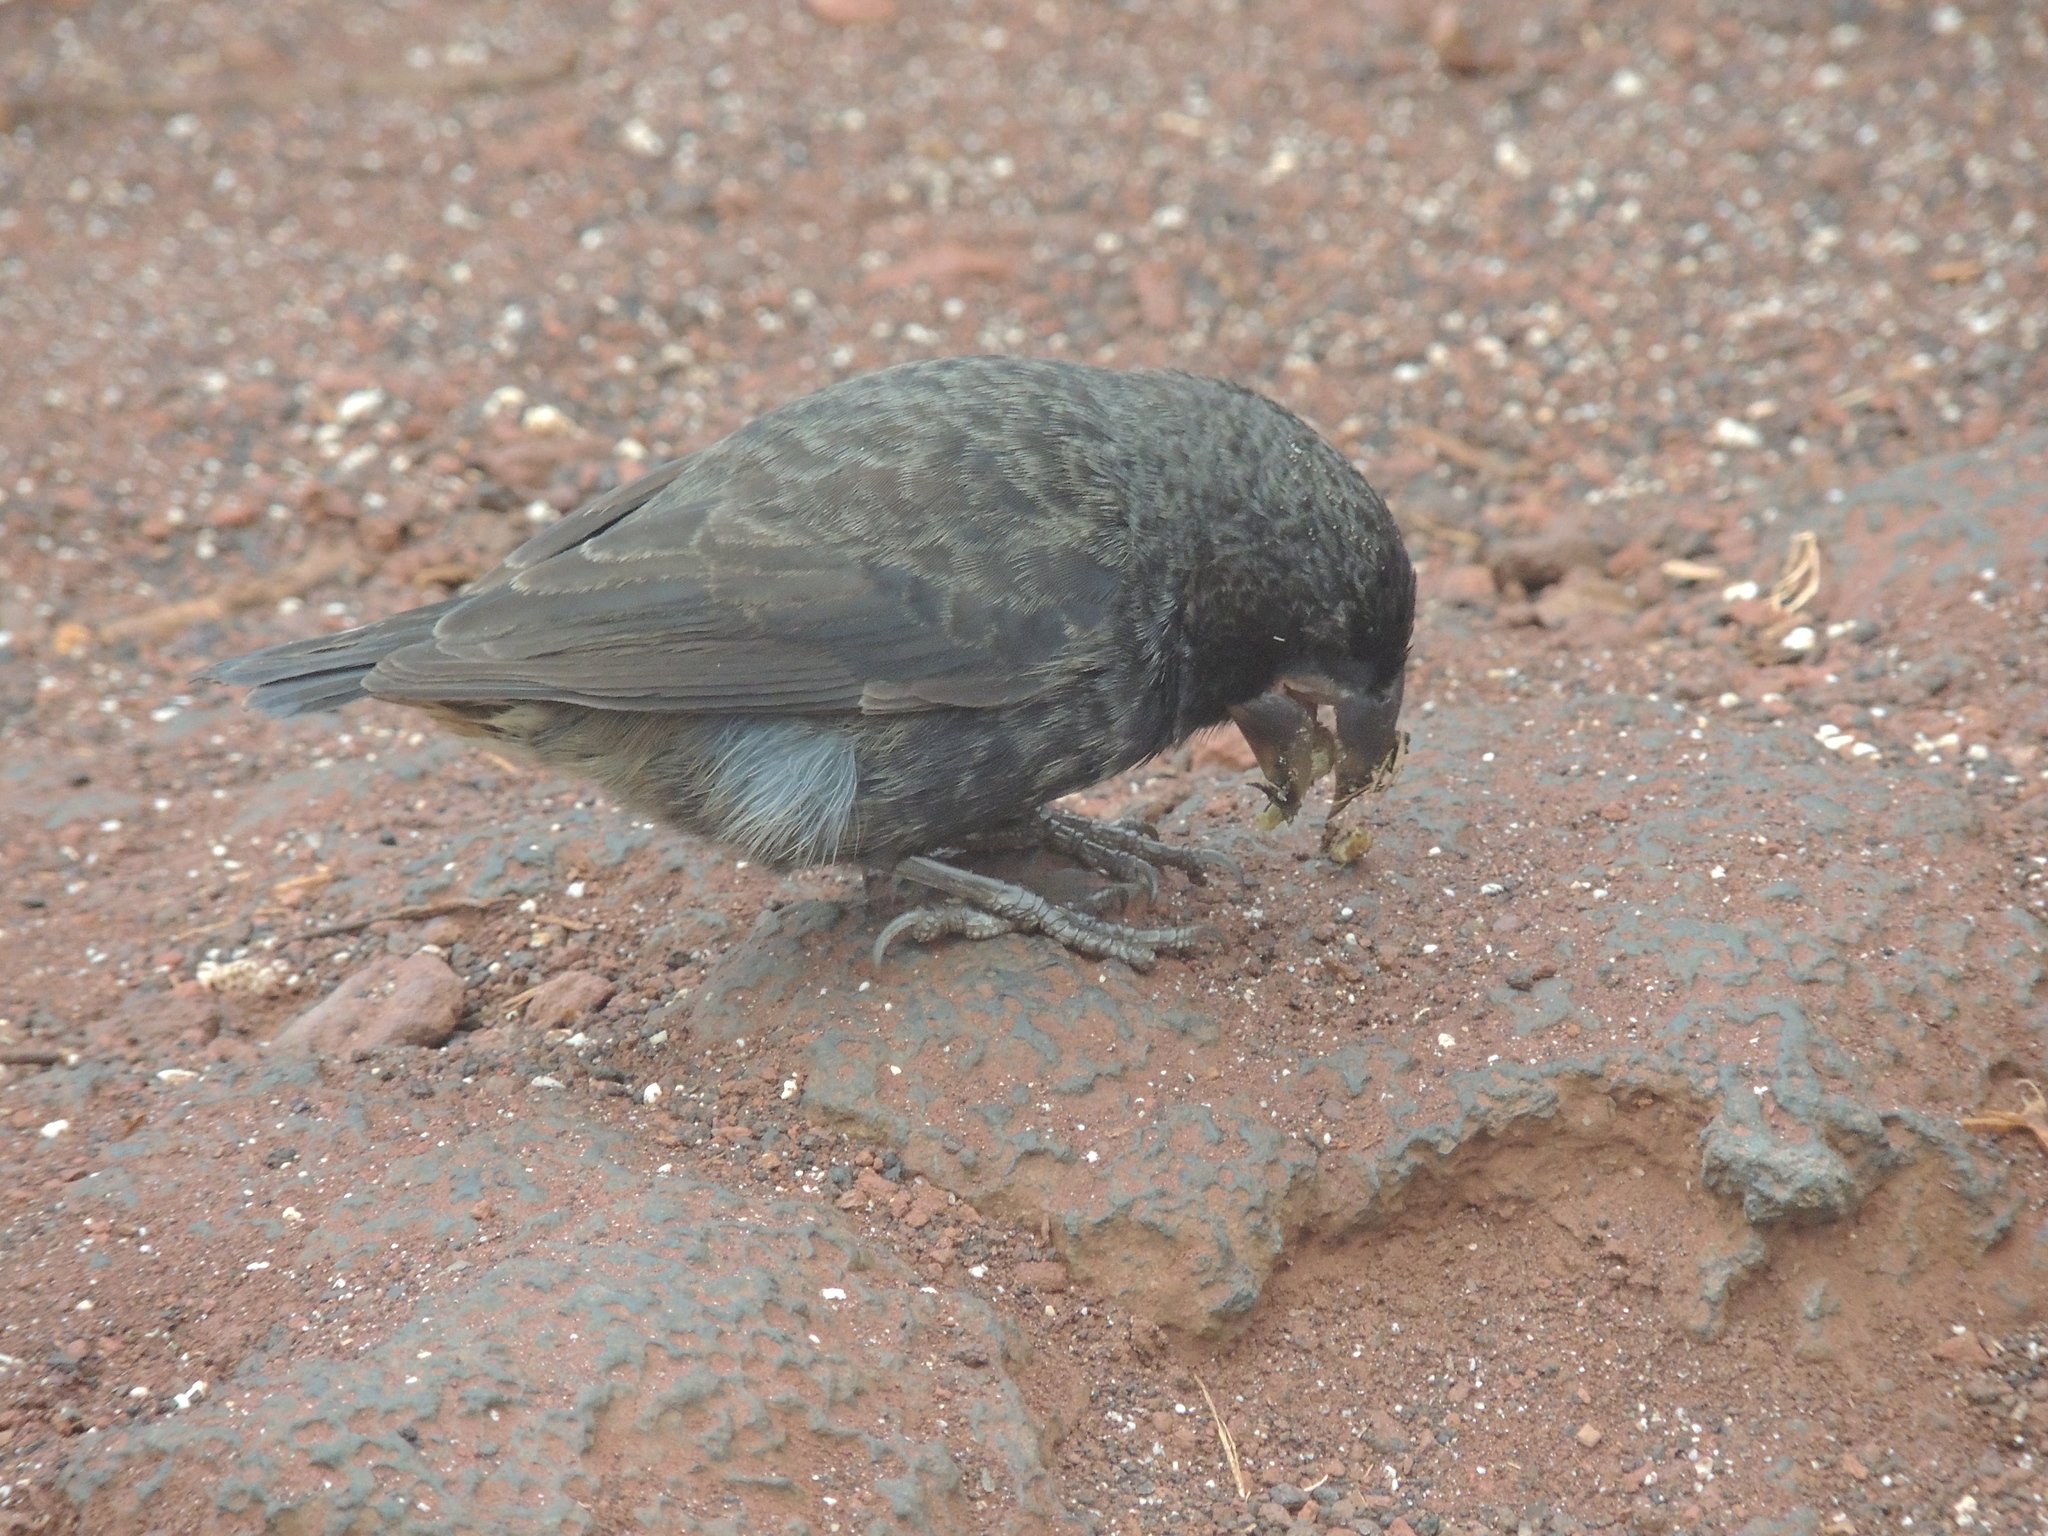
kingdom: Animalia
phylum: Chordata
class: Aves
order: Passeriformes
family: Thraupidae
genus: Geospiza
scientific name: Geospiza fortis
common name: Medium ground finch
